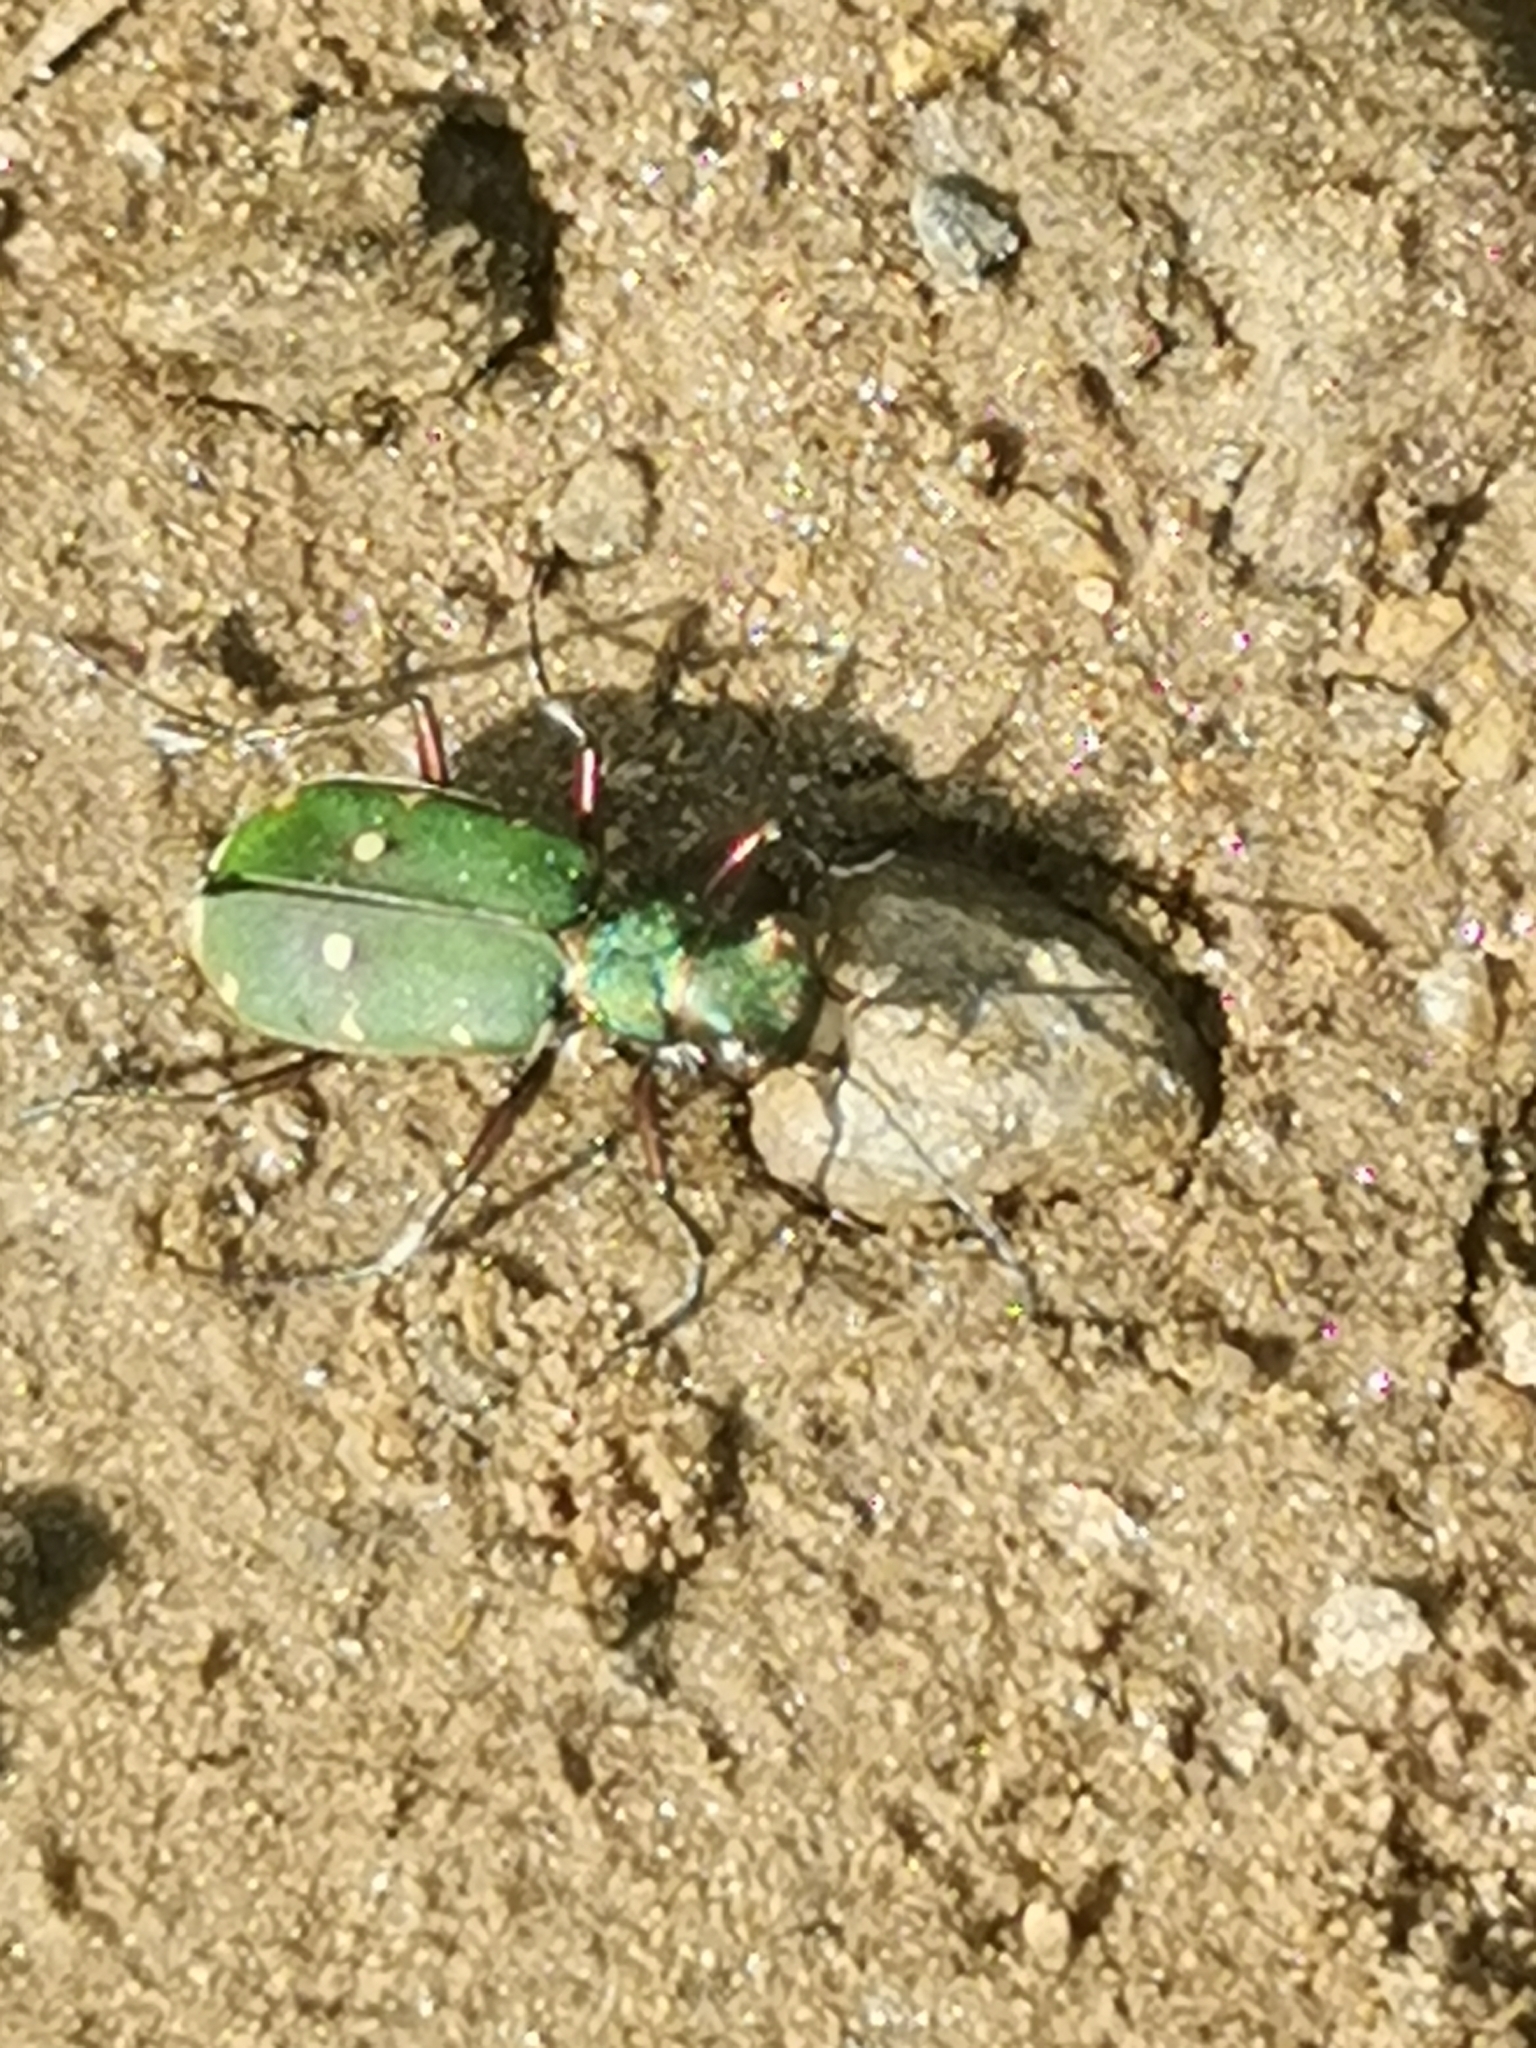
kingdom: Animalia
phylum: Arthropoda
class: Insecta
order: Coleoptera
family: Carabidae
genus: Cicindela
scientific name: Cicindela campestris
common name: Common tiger beetle
